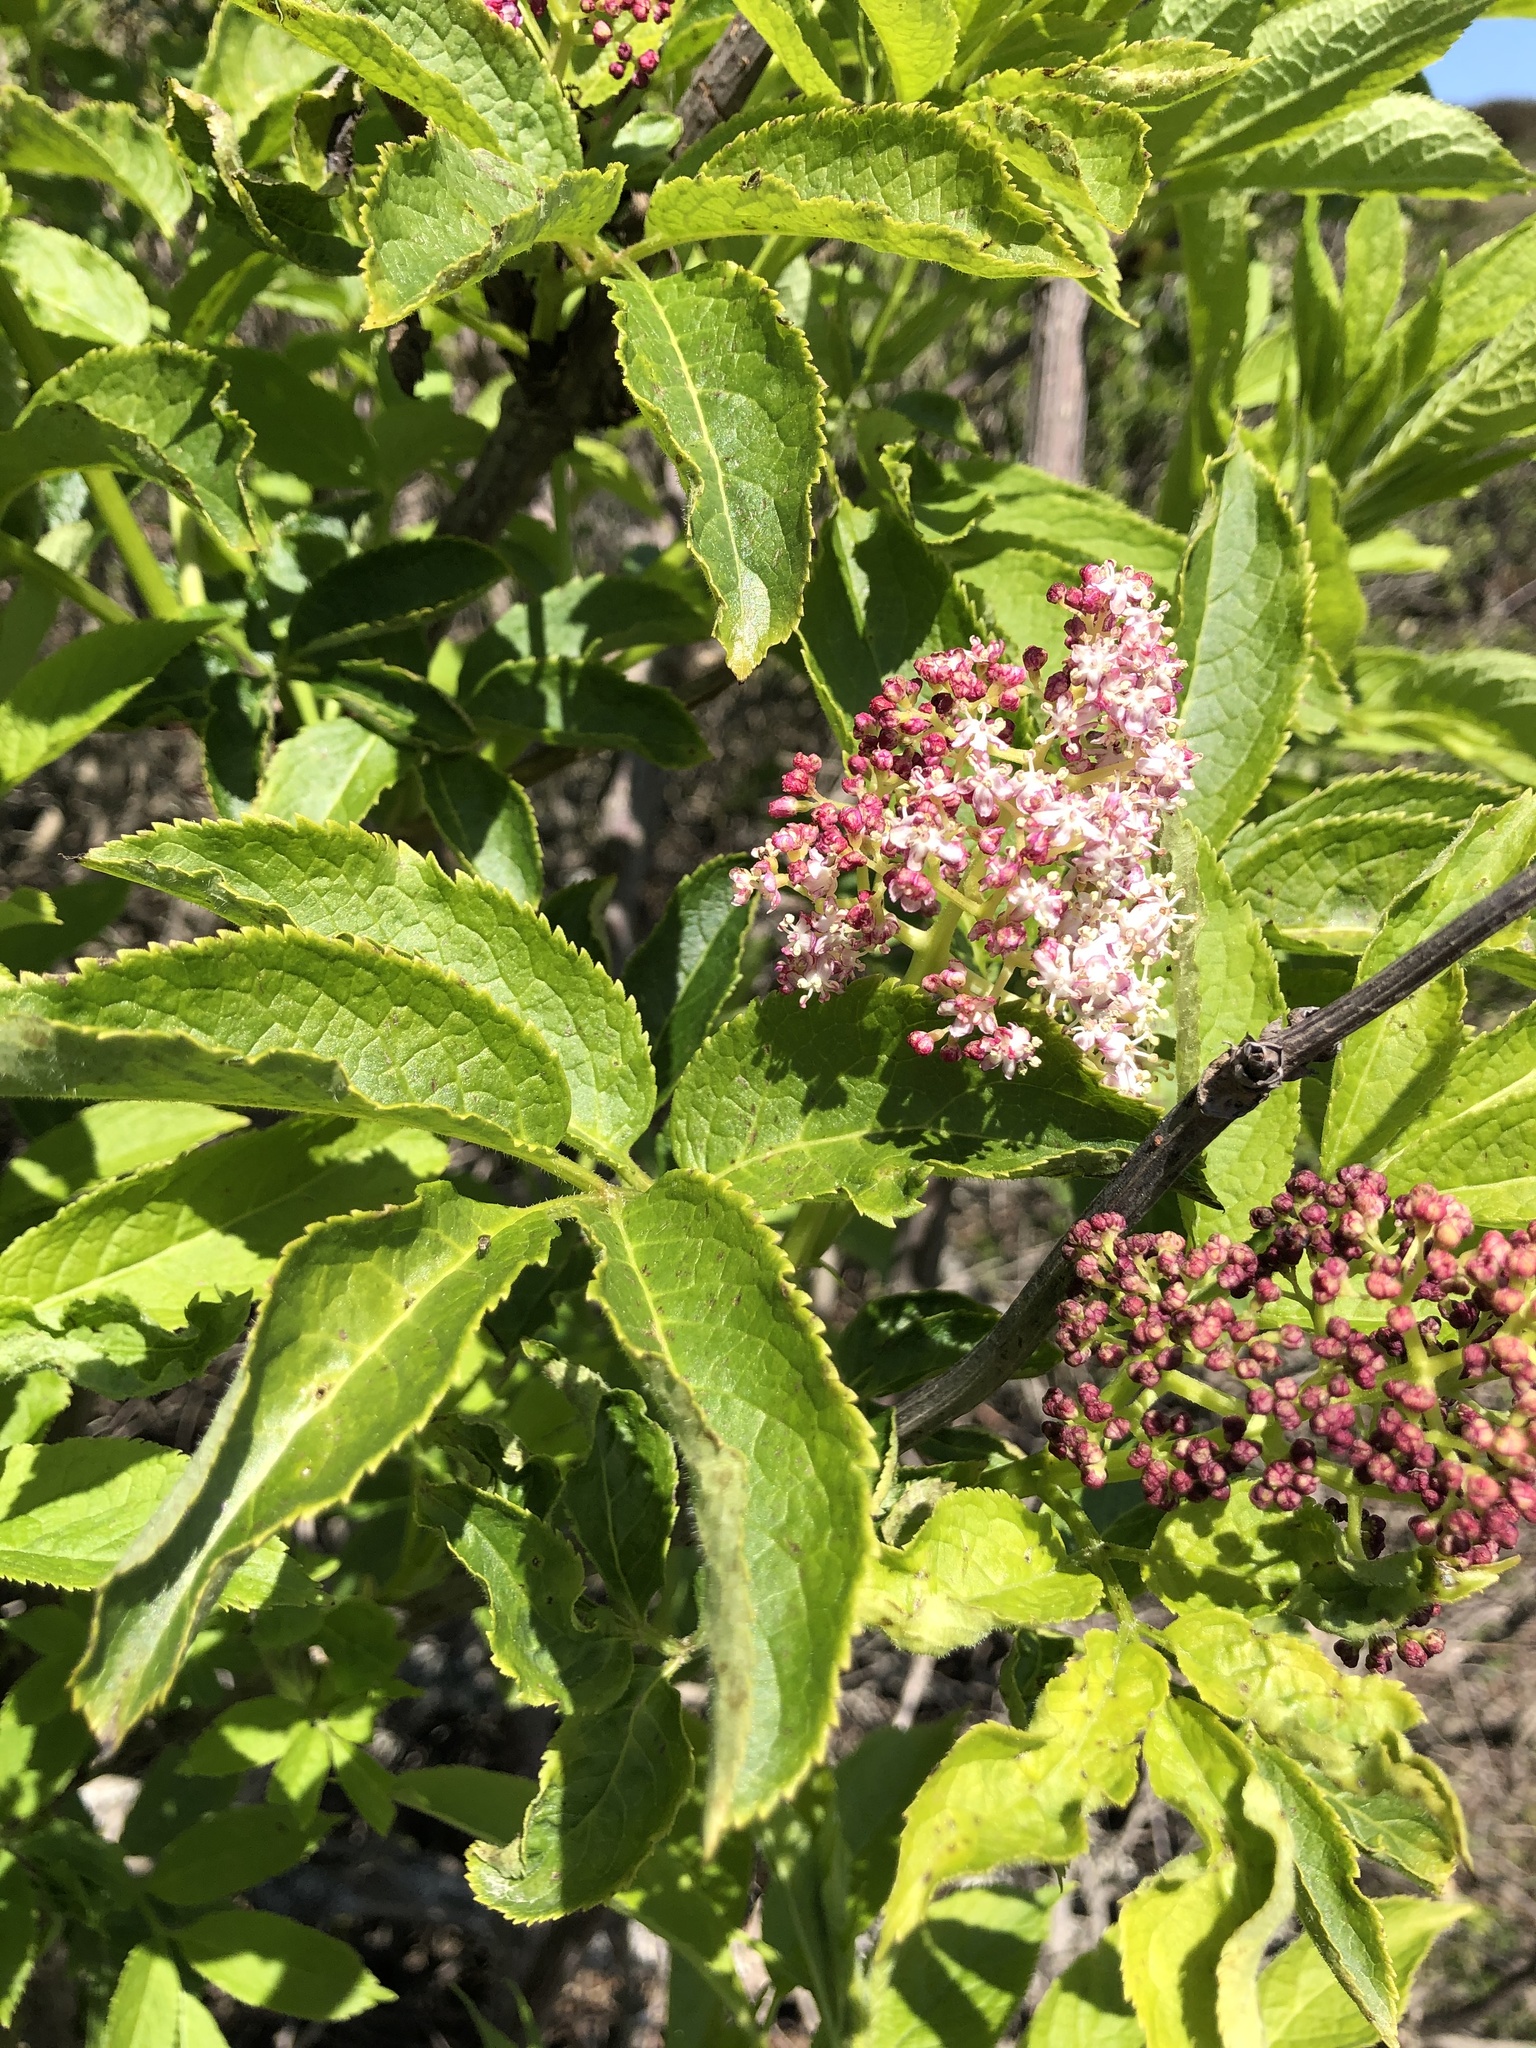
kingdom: Plantae
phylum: Tracheophyta
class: Magnoliopsida
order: Dipsacales
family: Viburnaceae
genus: Sambucus
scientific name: Sambucus racemosa
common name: Red-berried elder
